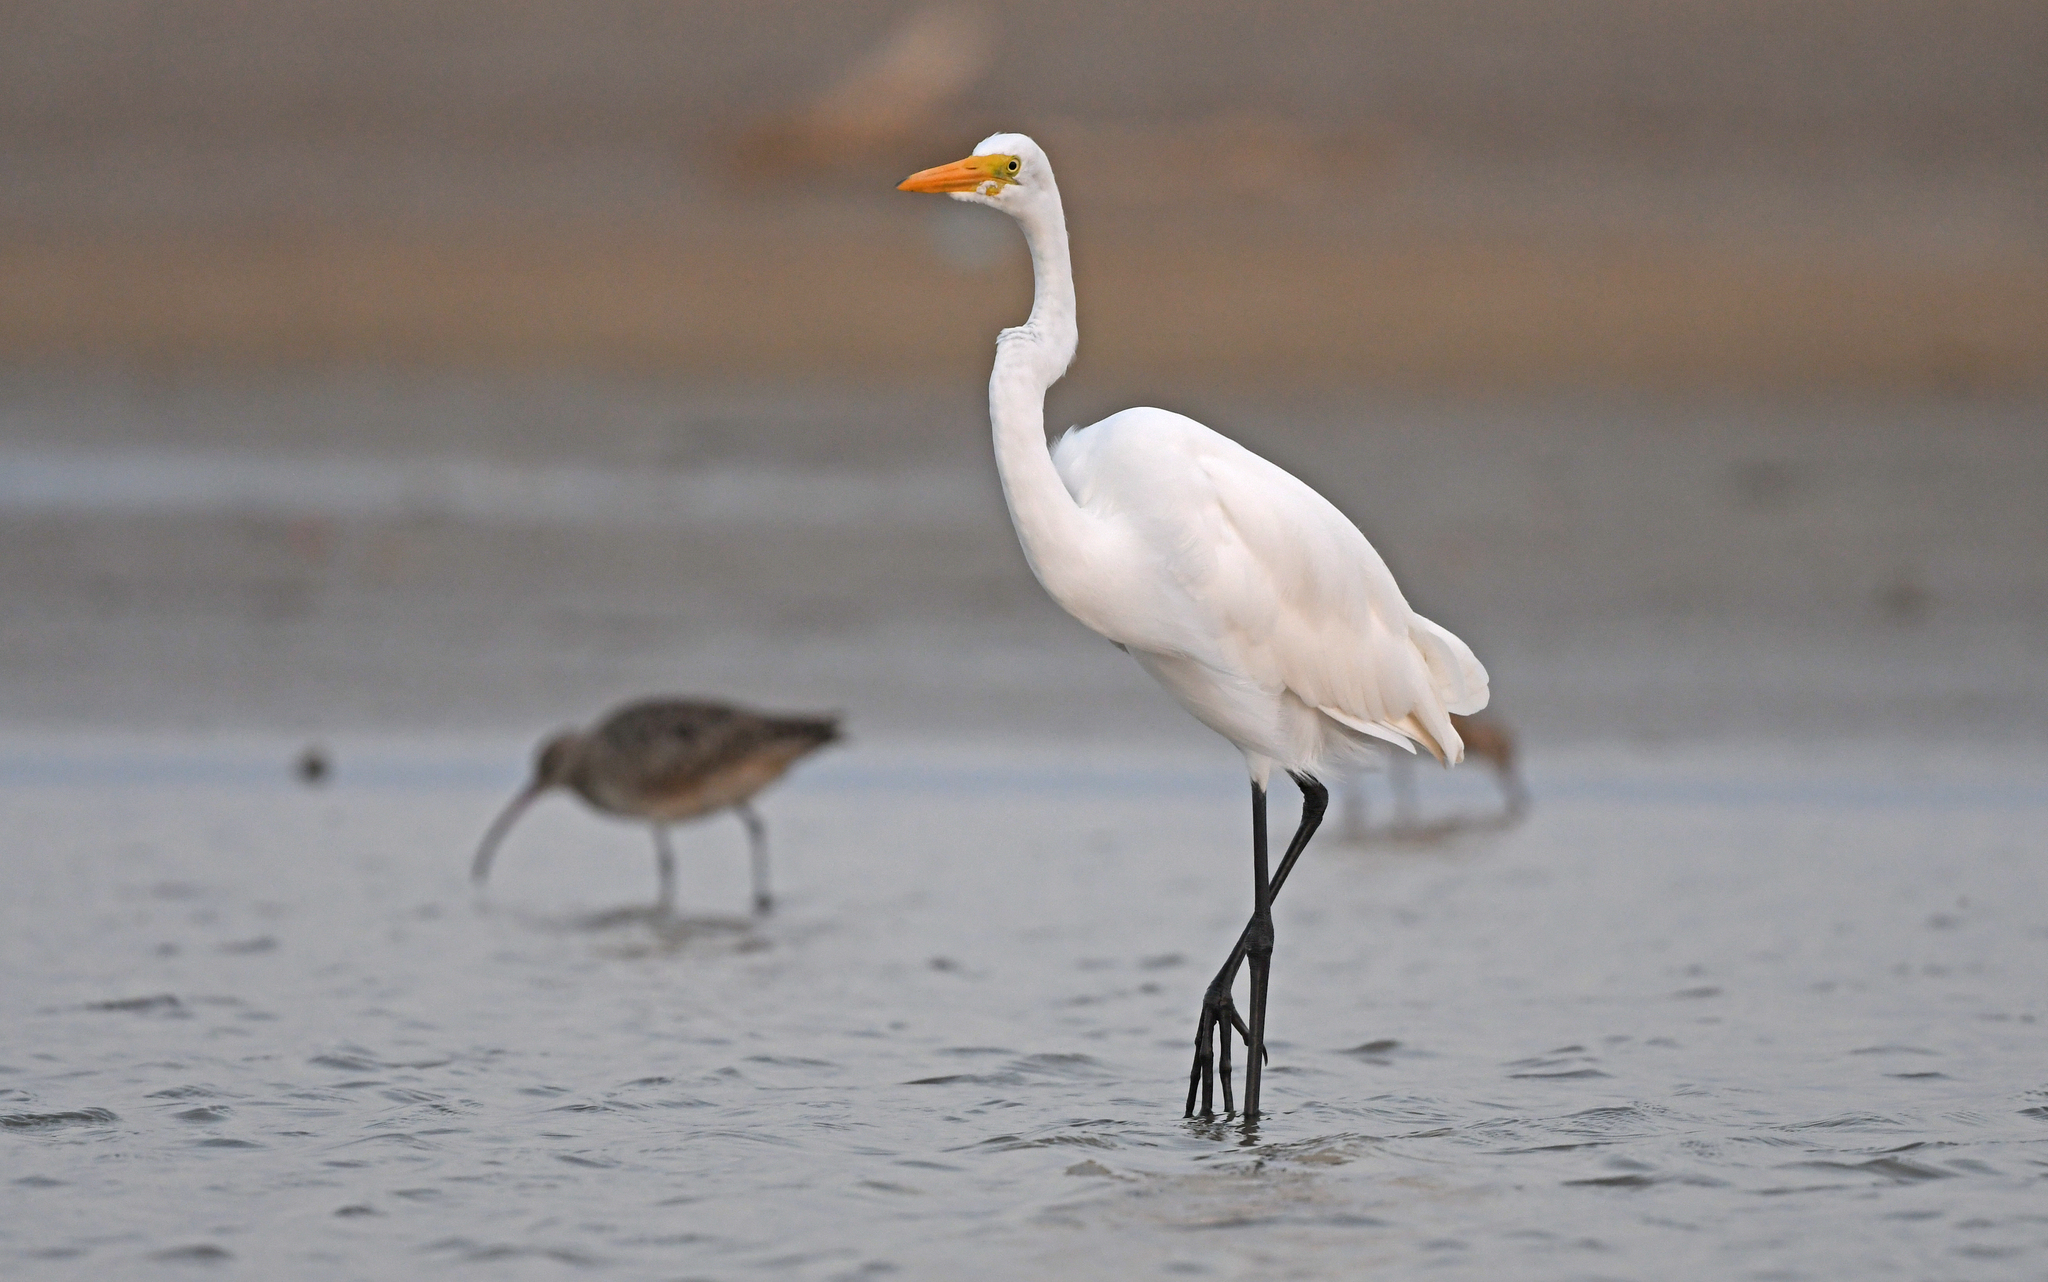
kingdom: Animalia
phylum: Chordata
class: Aves
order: Pelecaniformes
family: Ardeidae
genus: Ardea
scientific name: Ardea alba
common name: Great egret
